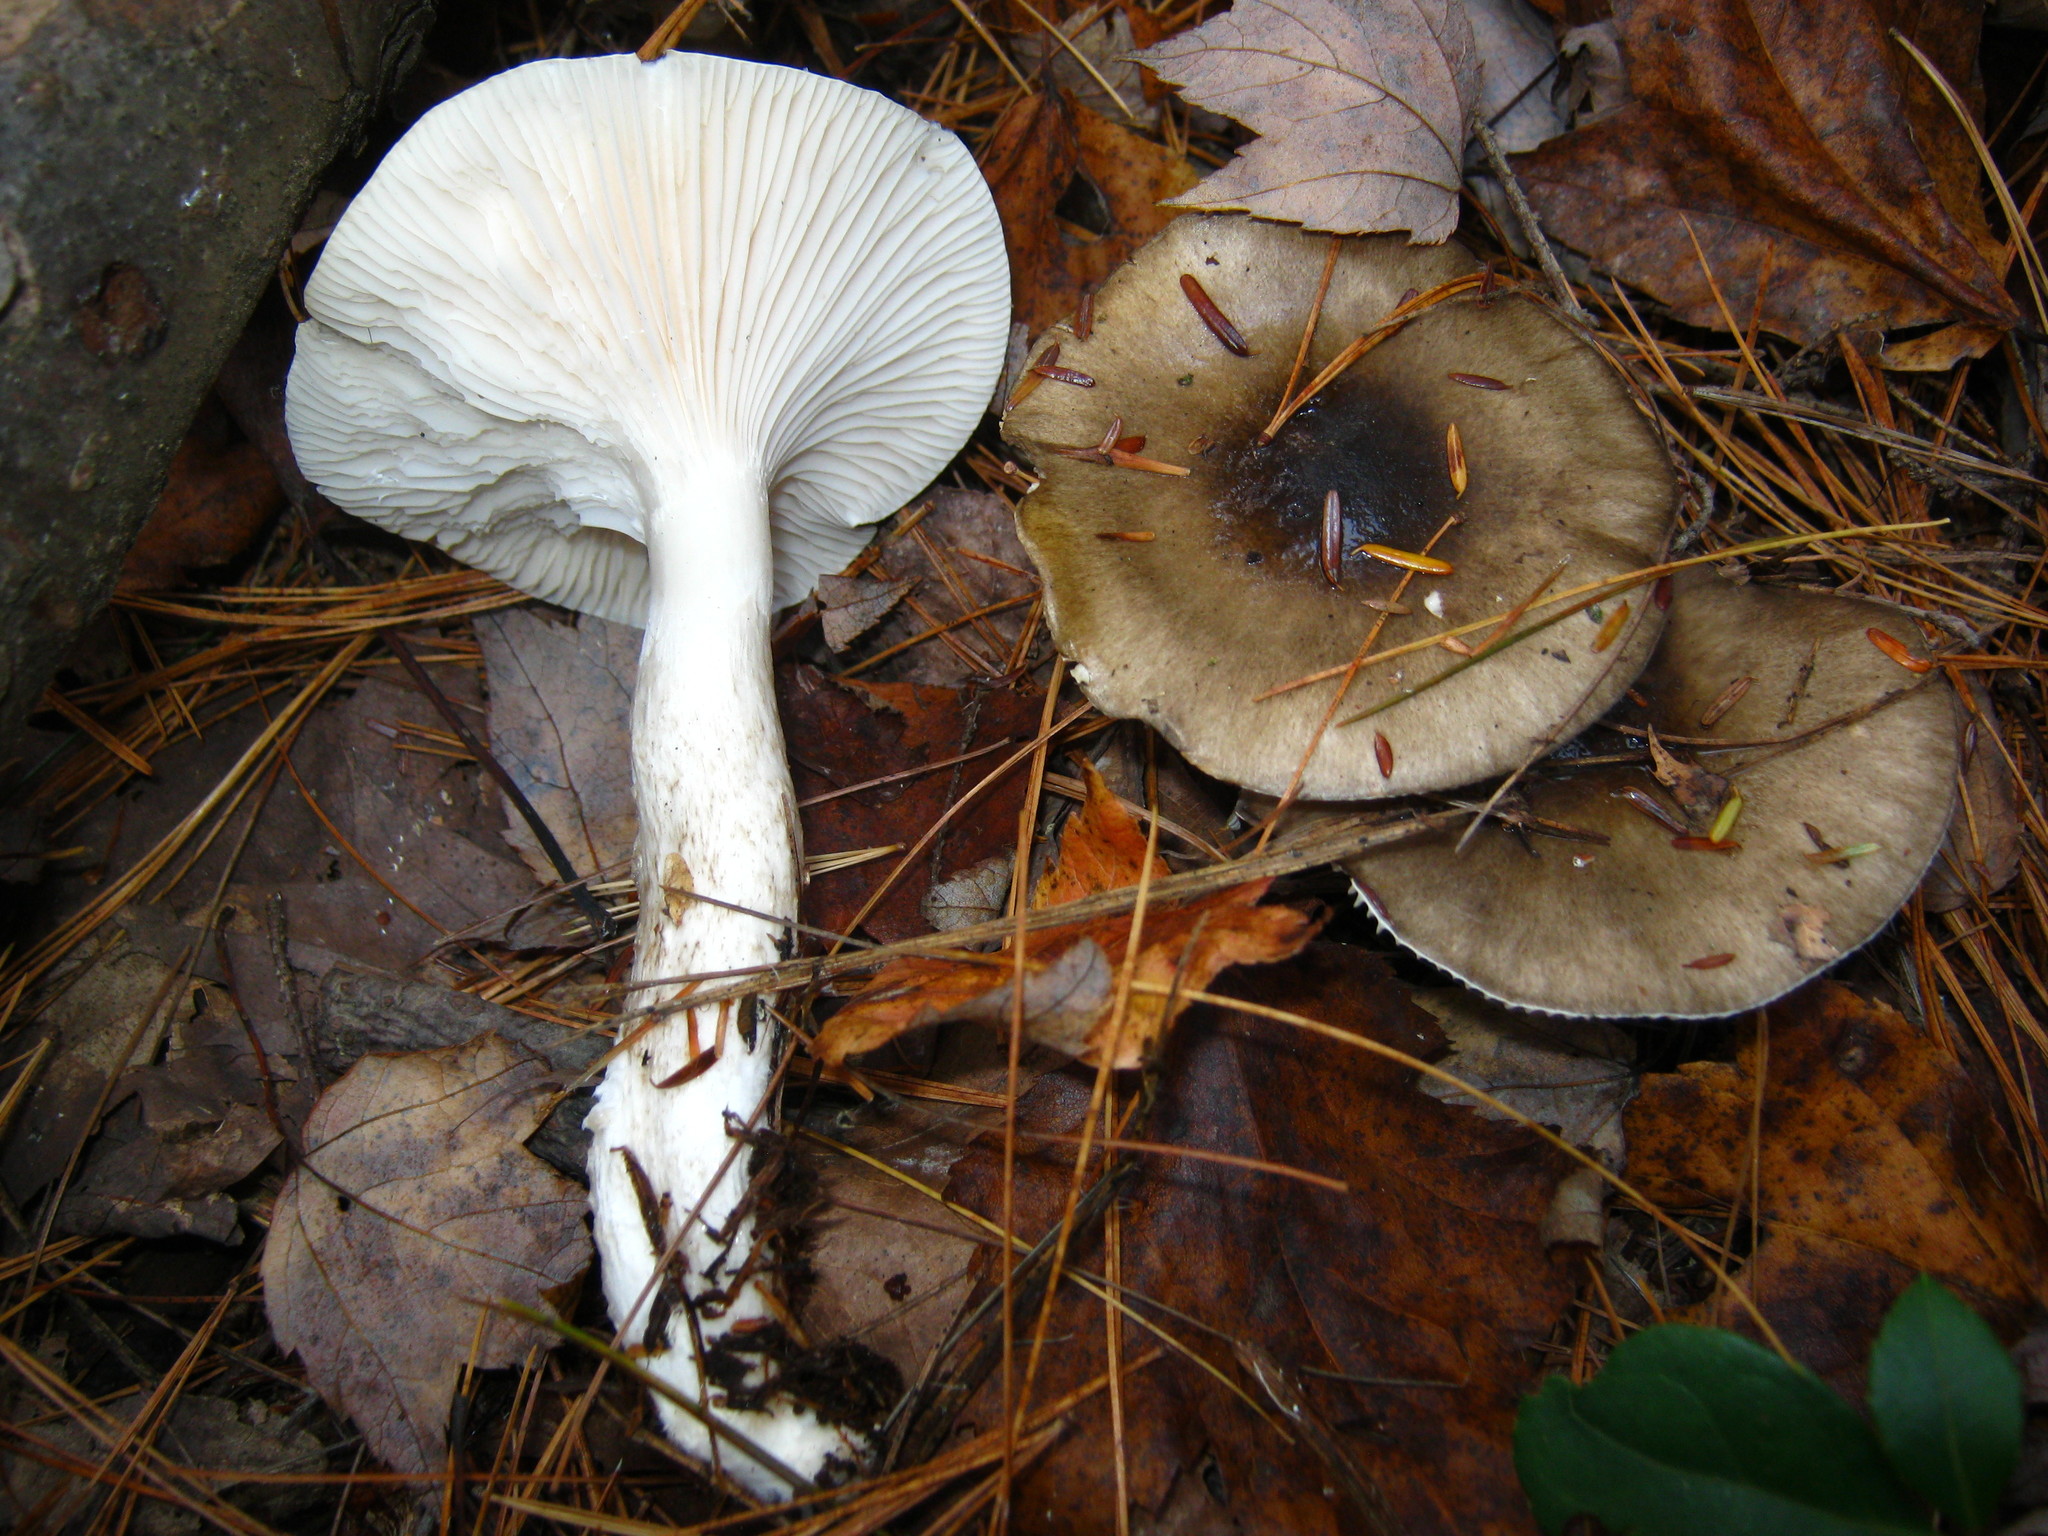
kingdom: Fungi
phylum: Basidiomycota
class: Agaricomycetes
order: Agaricales
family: Hygrophoraceae
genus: Hygrophorus
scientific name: Hygrophorus fuligineus
